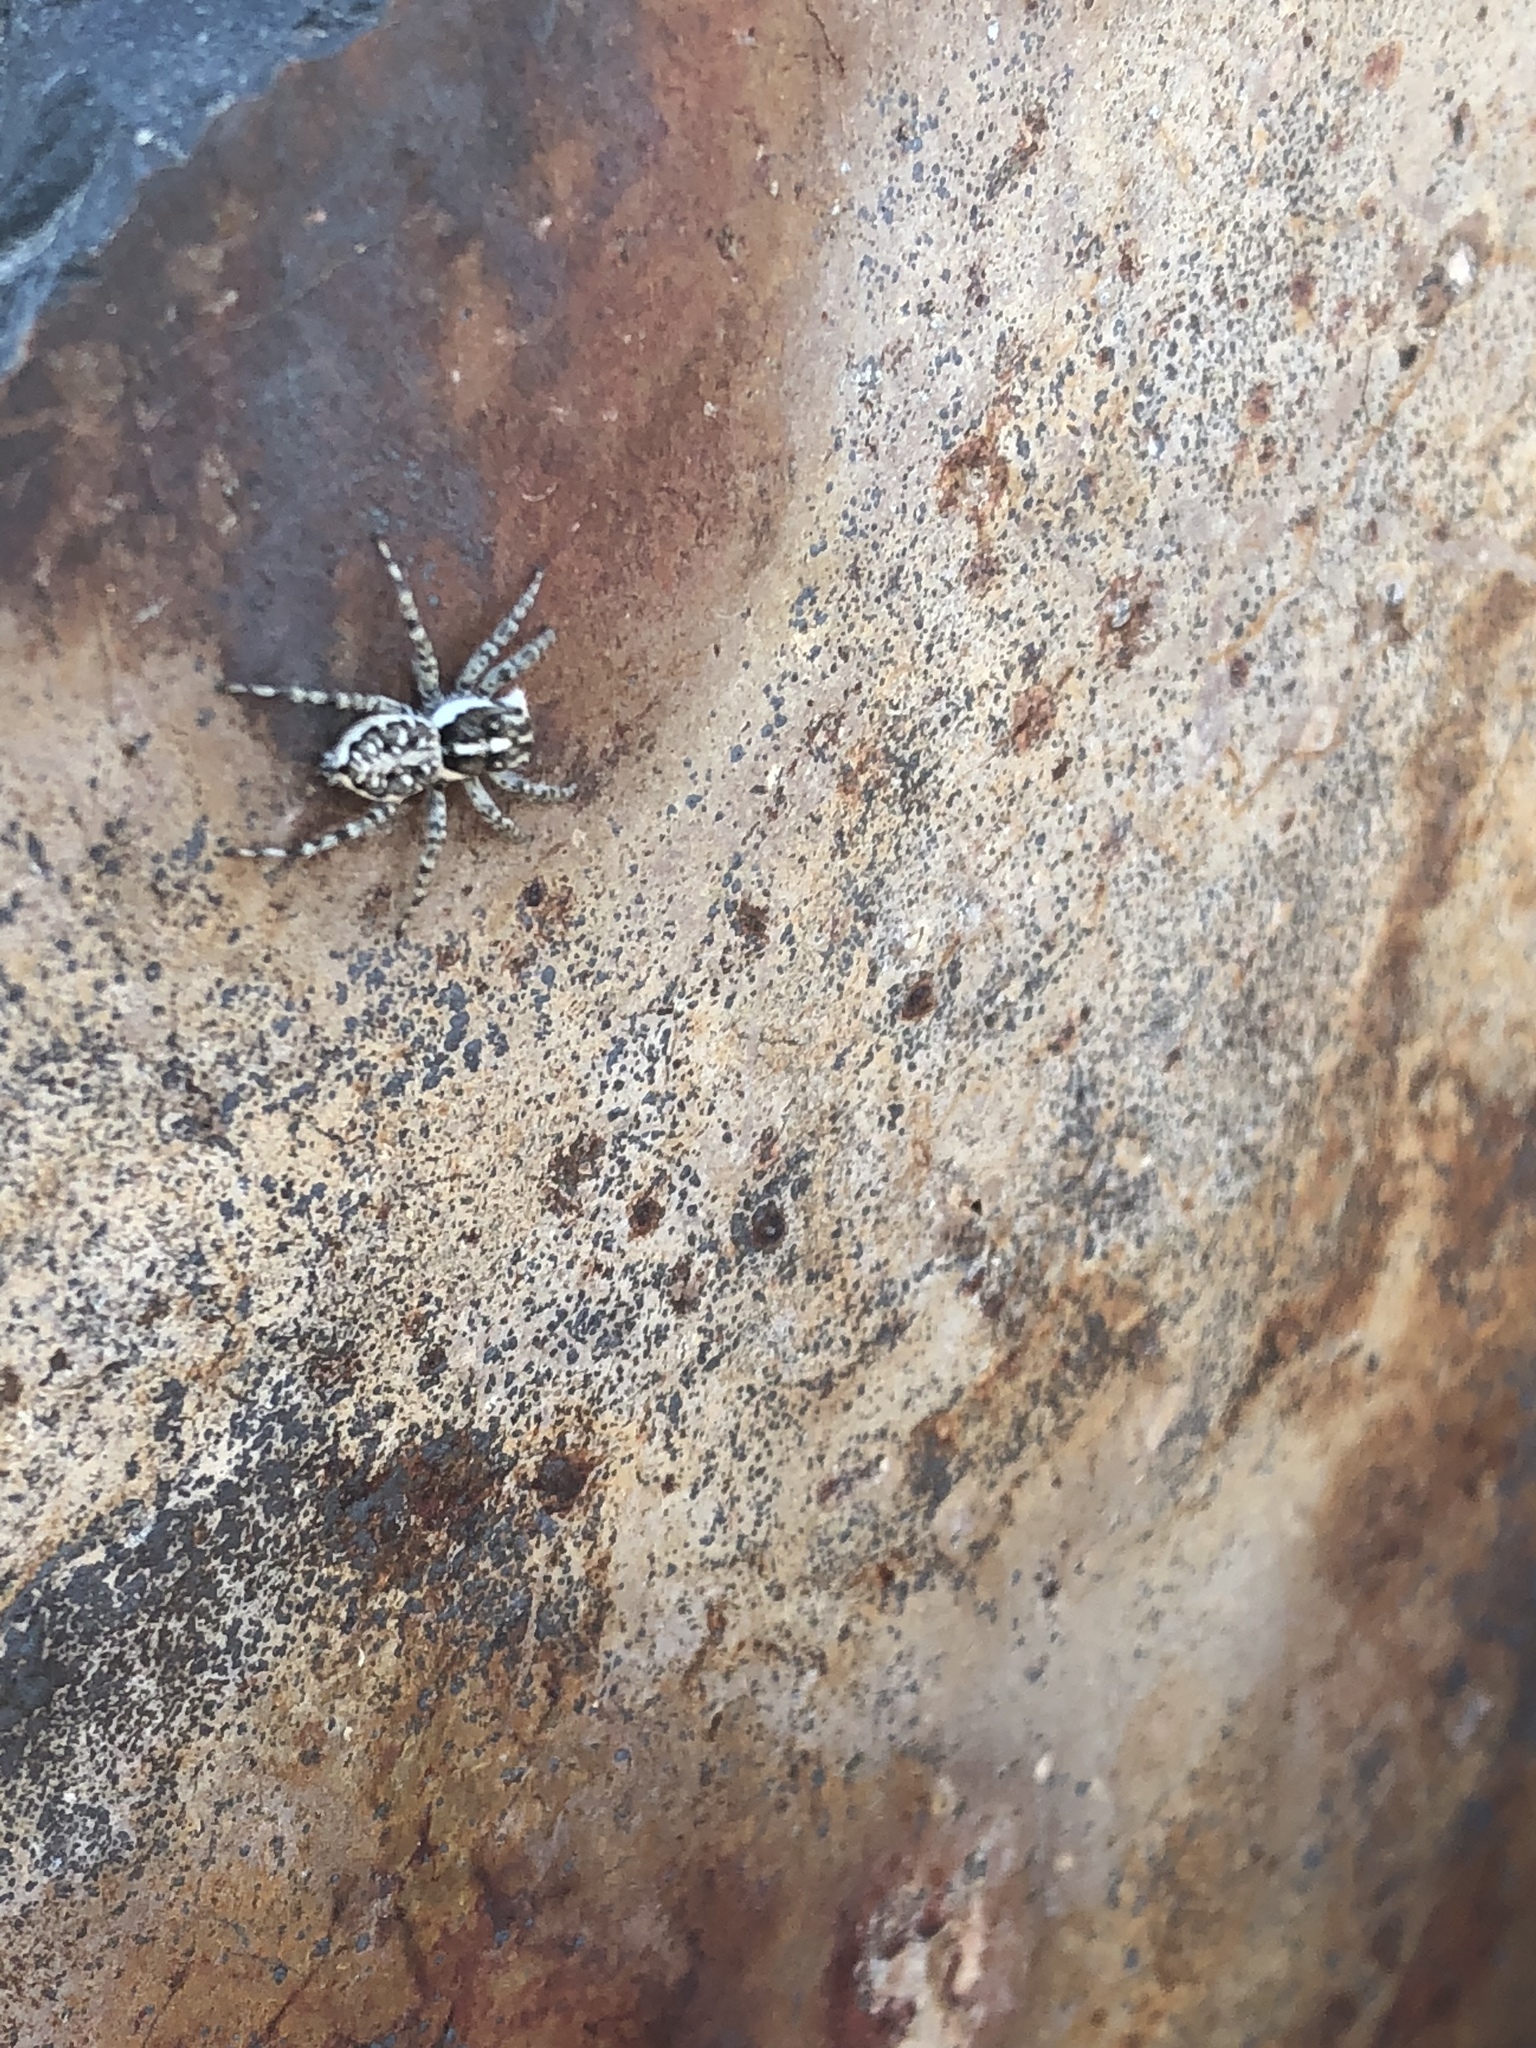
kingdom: Animalia
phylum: Arthropoda
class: Arachnida
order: Araneae
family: Salticidae
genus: Menemerus
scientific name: Menemerus semilimbatus
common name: Jumping spider
